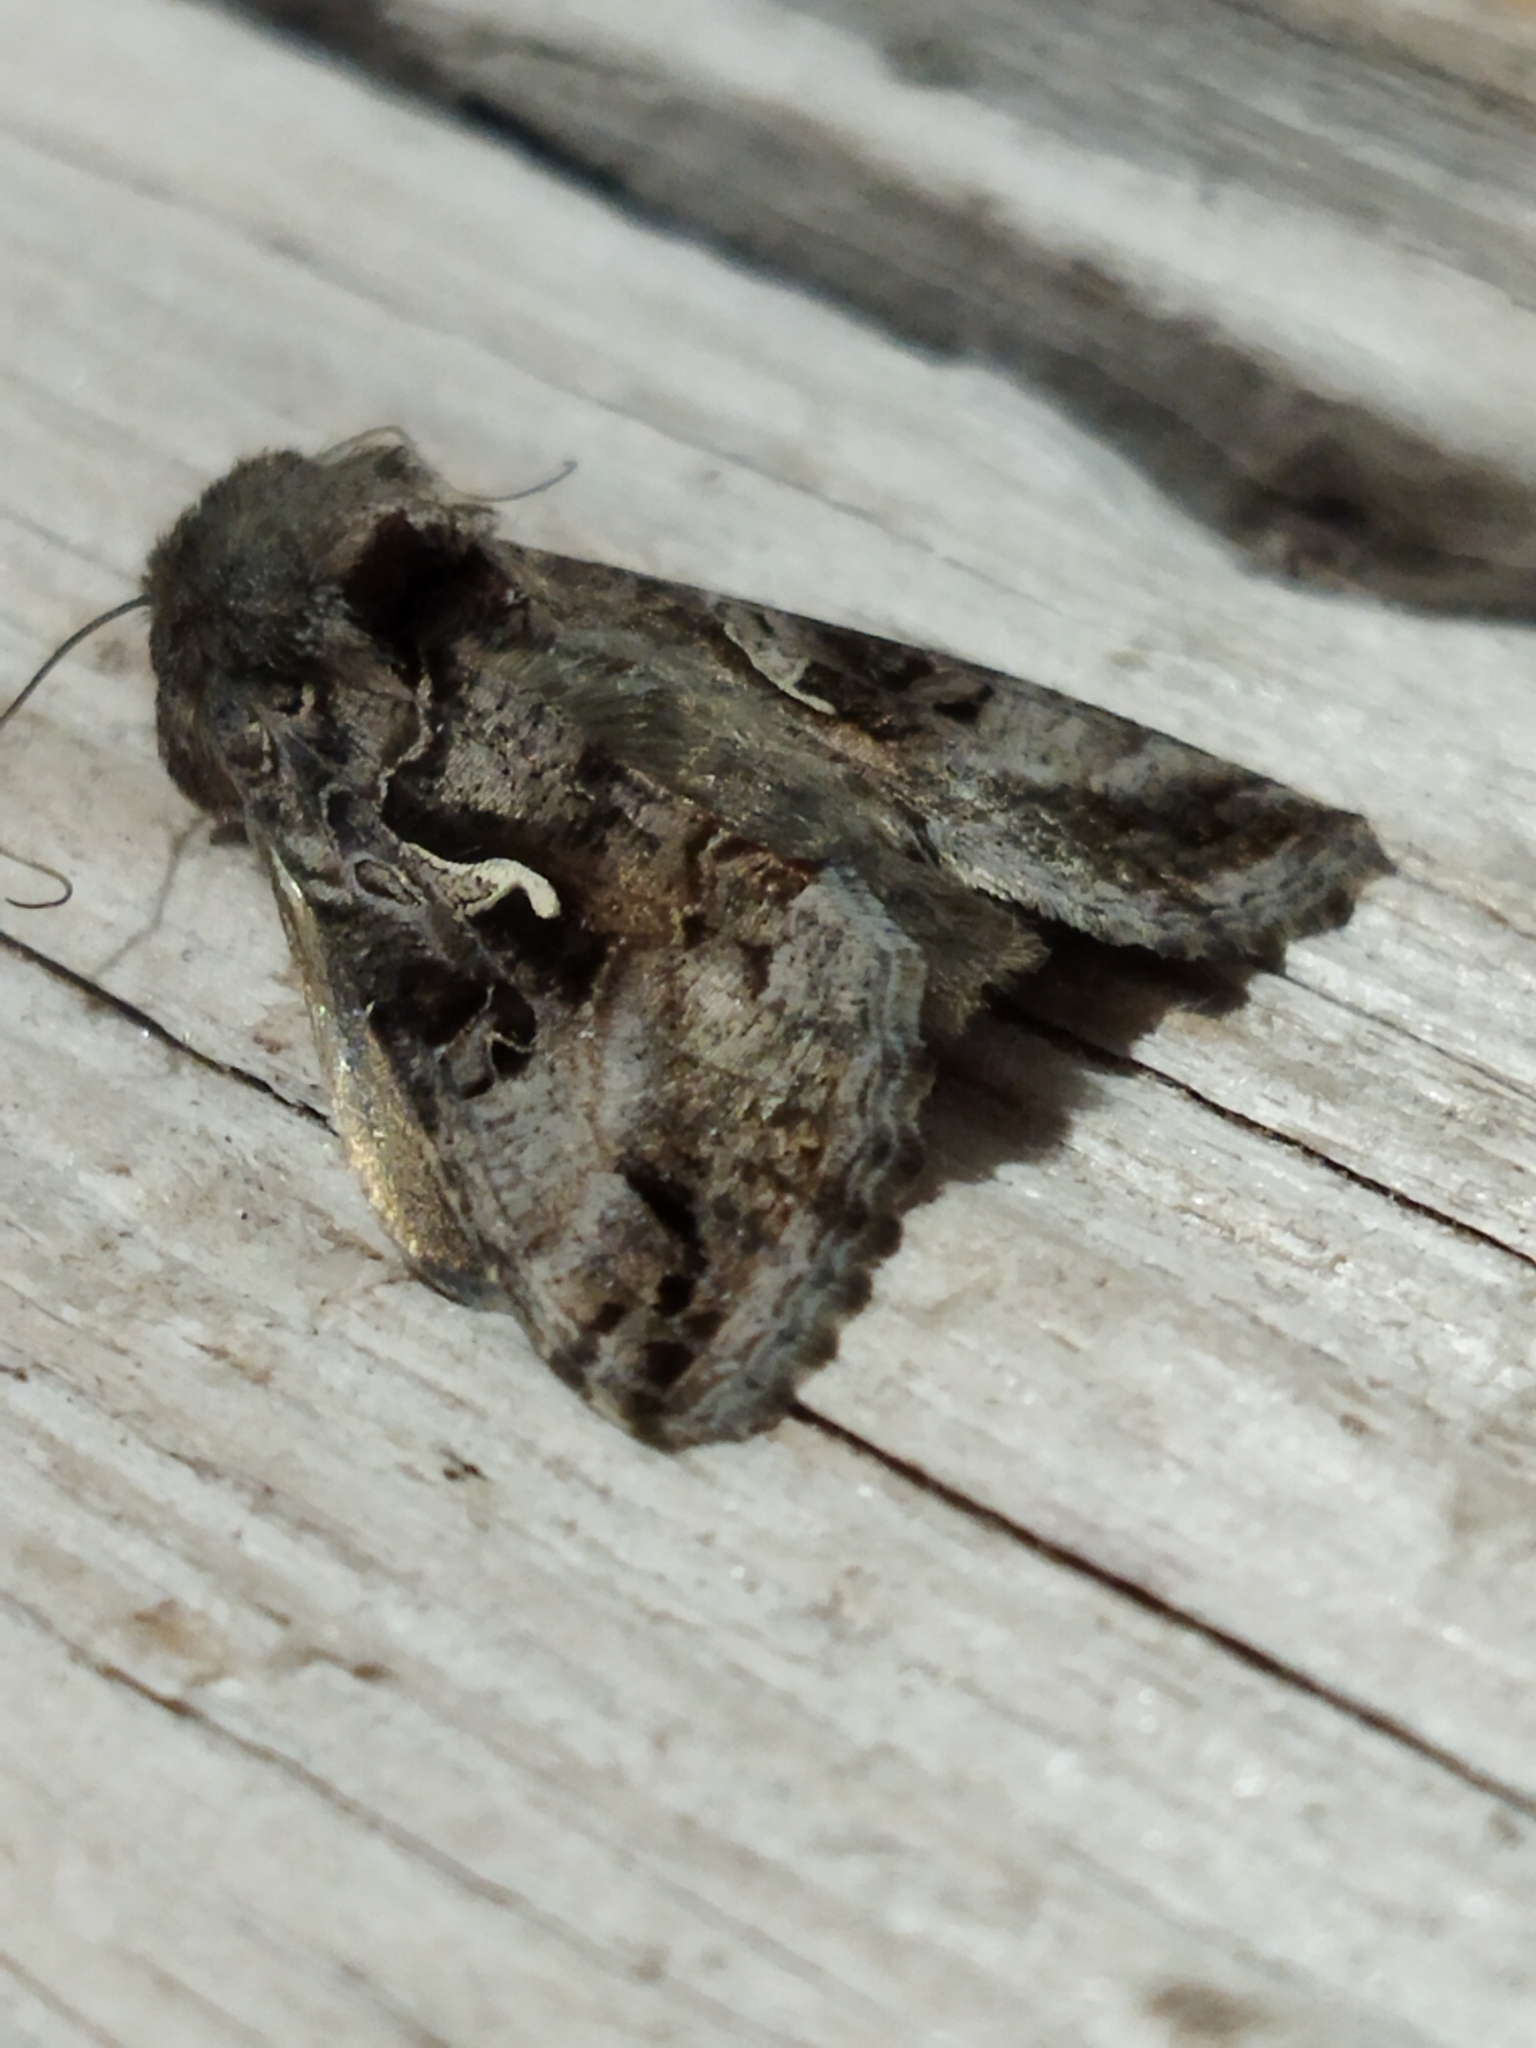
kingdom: Animalia
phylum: Arthropoda
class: Insecta
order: Lepidoptera
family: Noctuidae
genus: Autographa
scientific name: Autographa gamma
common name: Silver y
